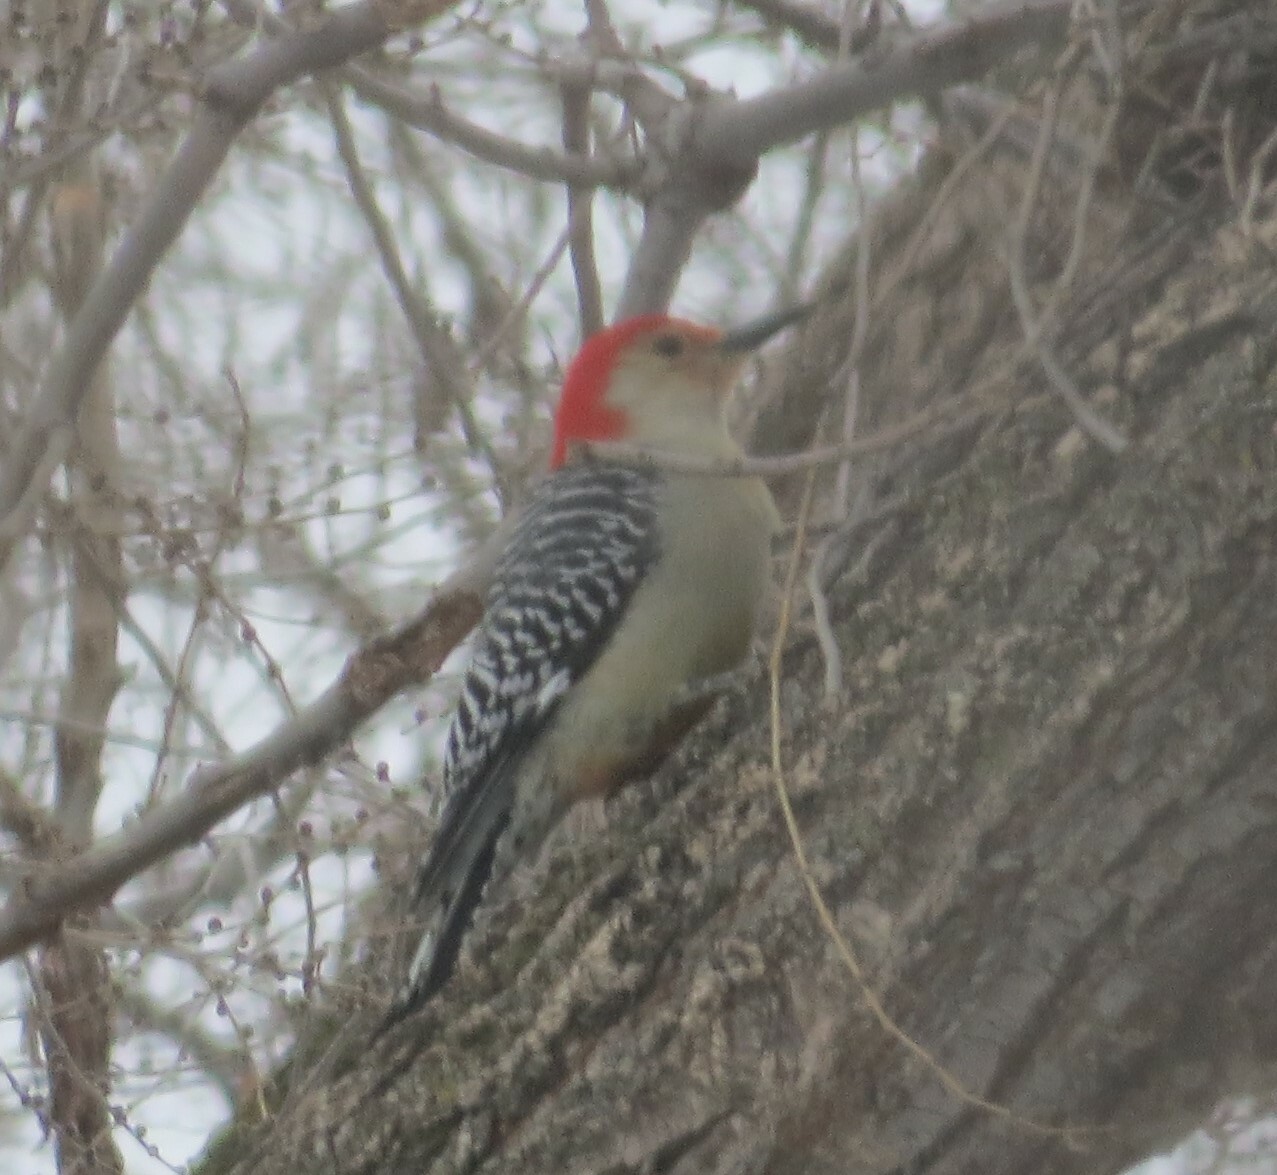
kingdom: Animalia
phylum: Chordata
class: Aves
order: Piciformes
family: Picidae
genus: Melanerpes
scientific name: Melanerpes carolinus
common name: Red-bellied woodpecker
